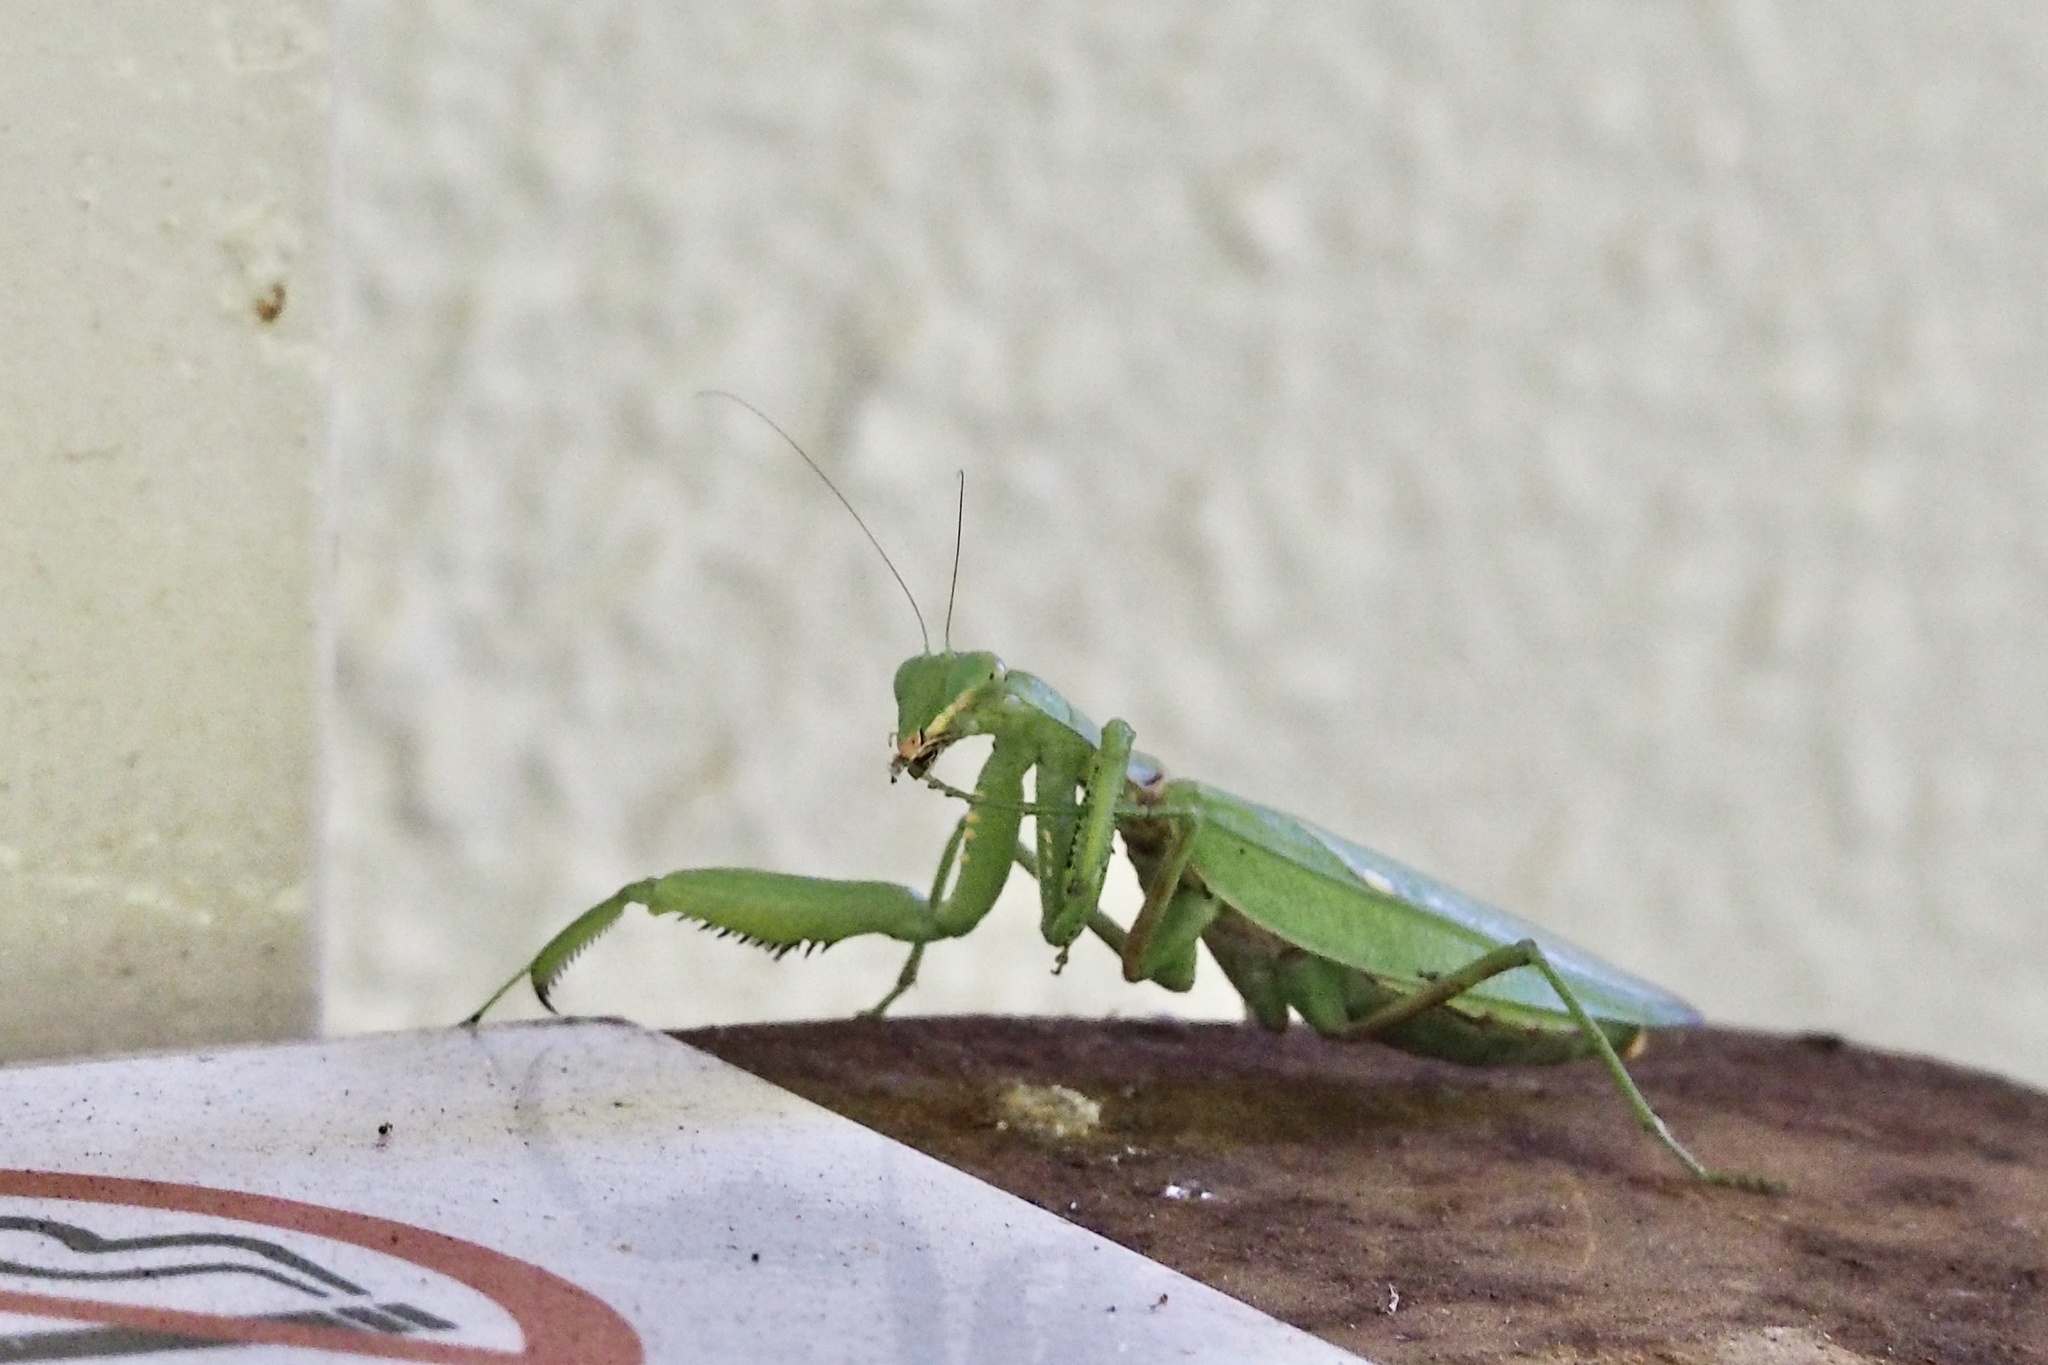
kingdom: Animalia
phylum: Arthropoda
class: Insecta
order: Mantodea
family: Mantidae
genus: Hierodula
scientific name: Hierodula patellifera
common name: Asian mantis
